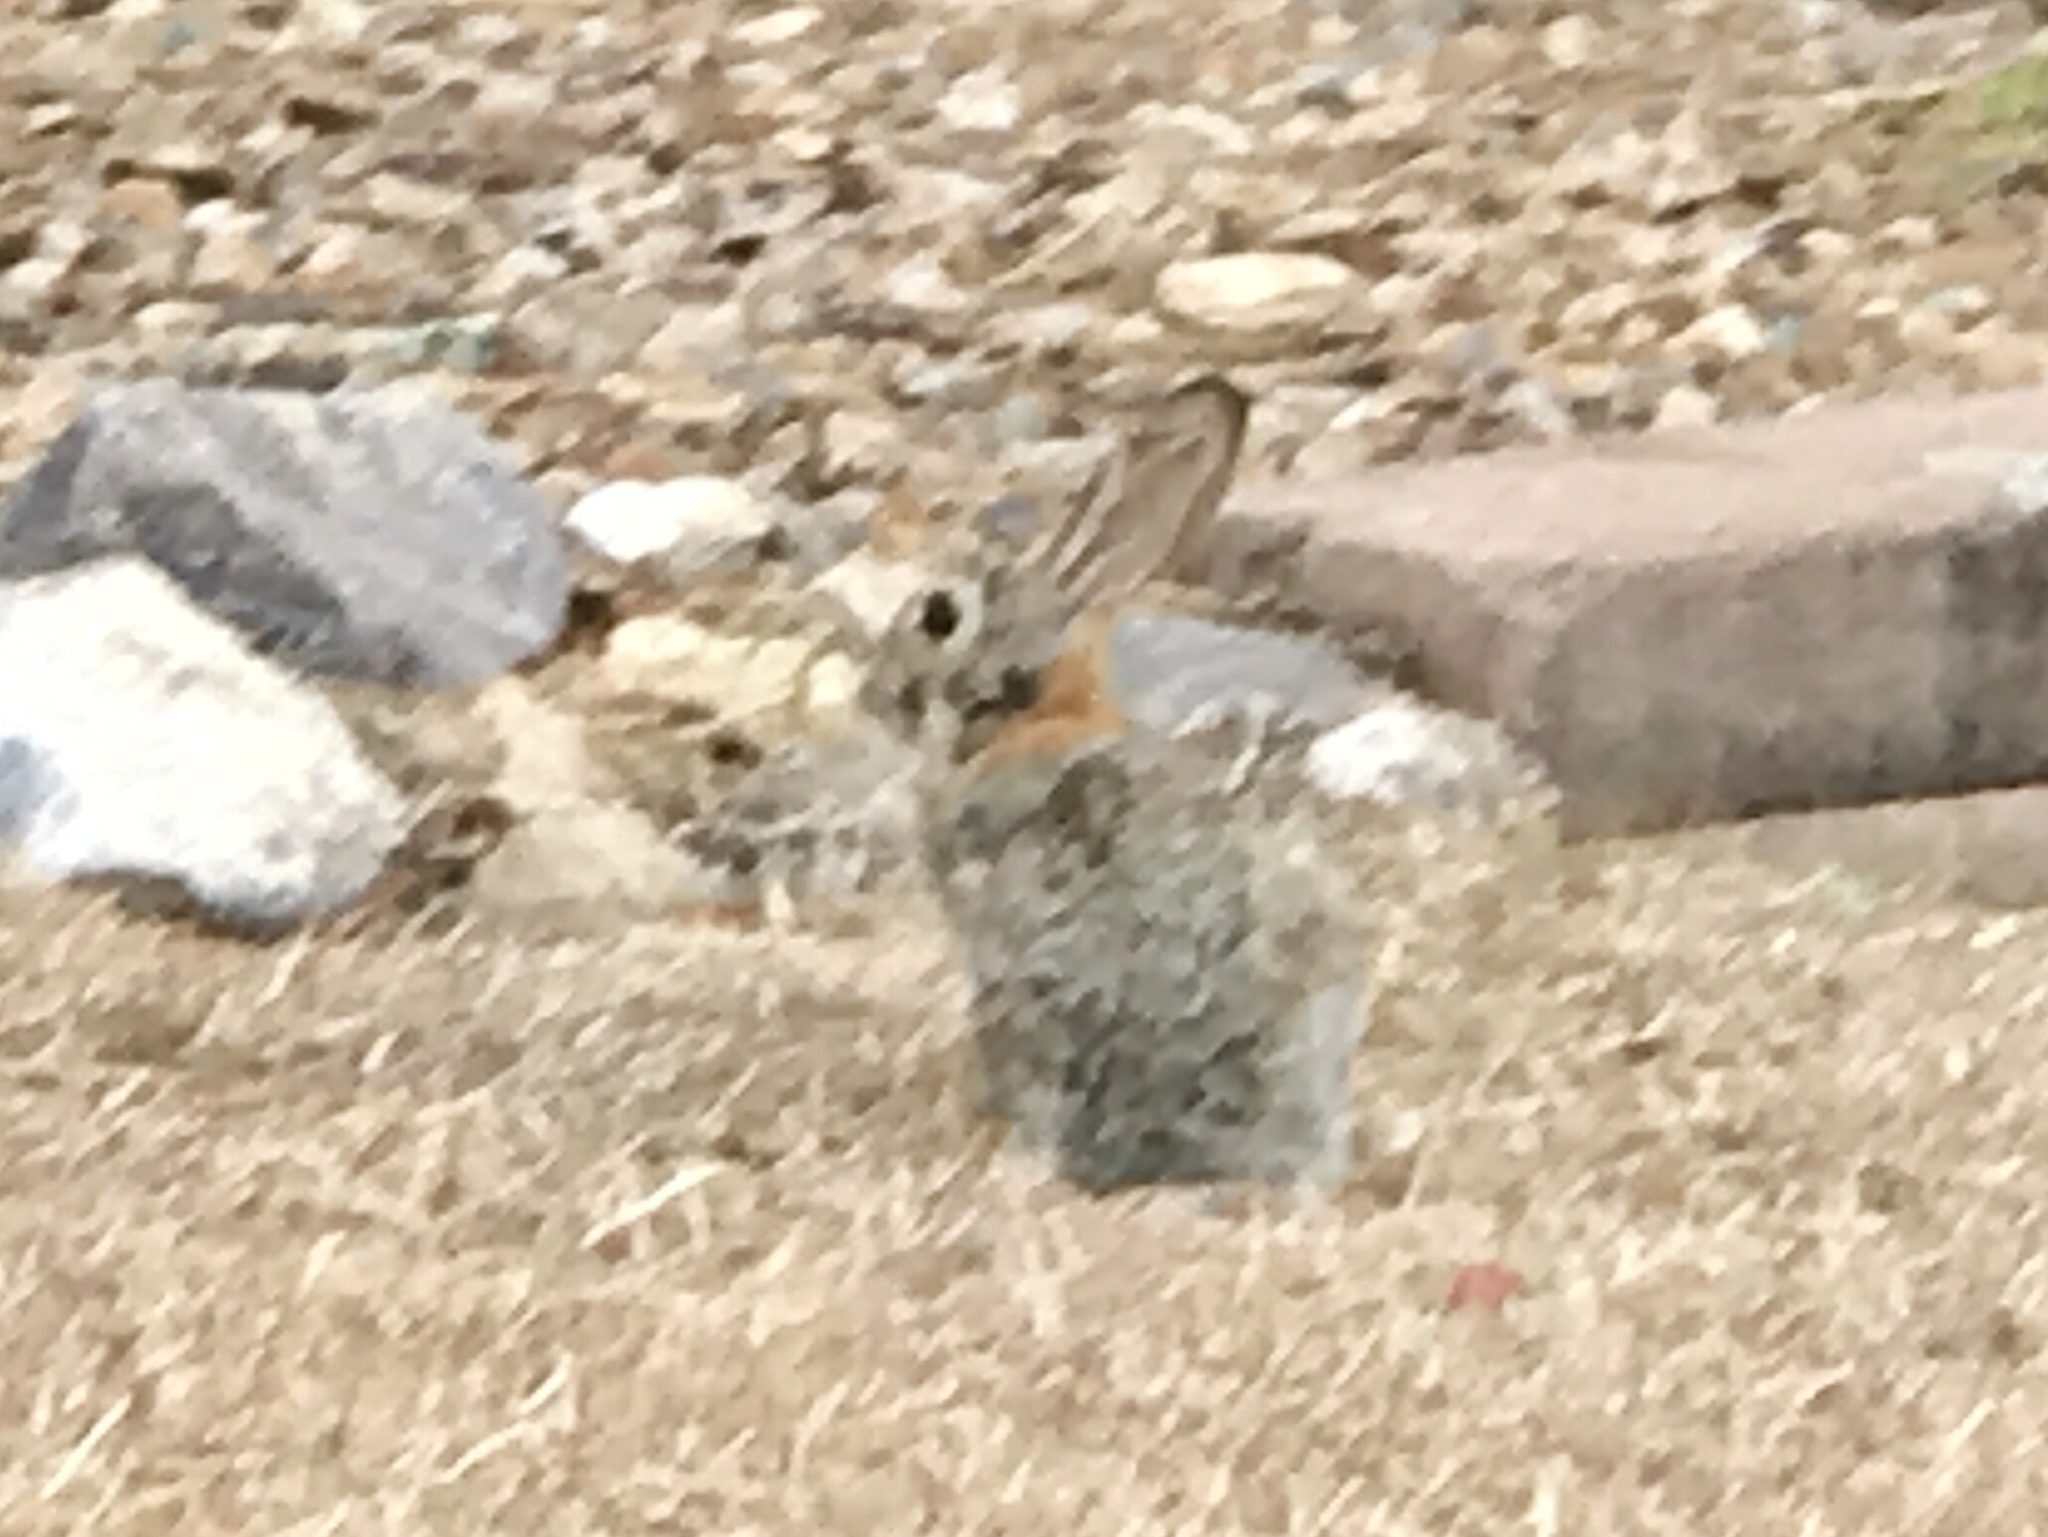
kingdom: Animalia
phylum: Chordata
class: Mammalia
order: Lagomorpha
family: Leporidae
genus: Sylvilagus
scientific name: Sylvilagus audubonii
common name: Desert cottontail
